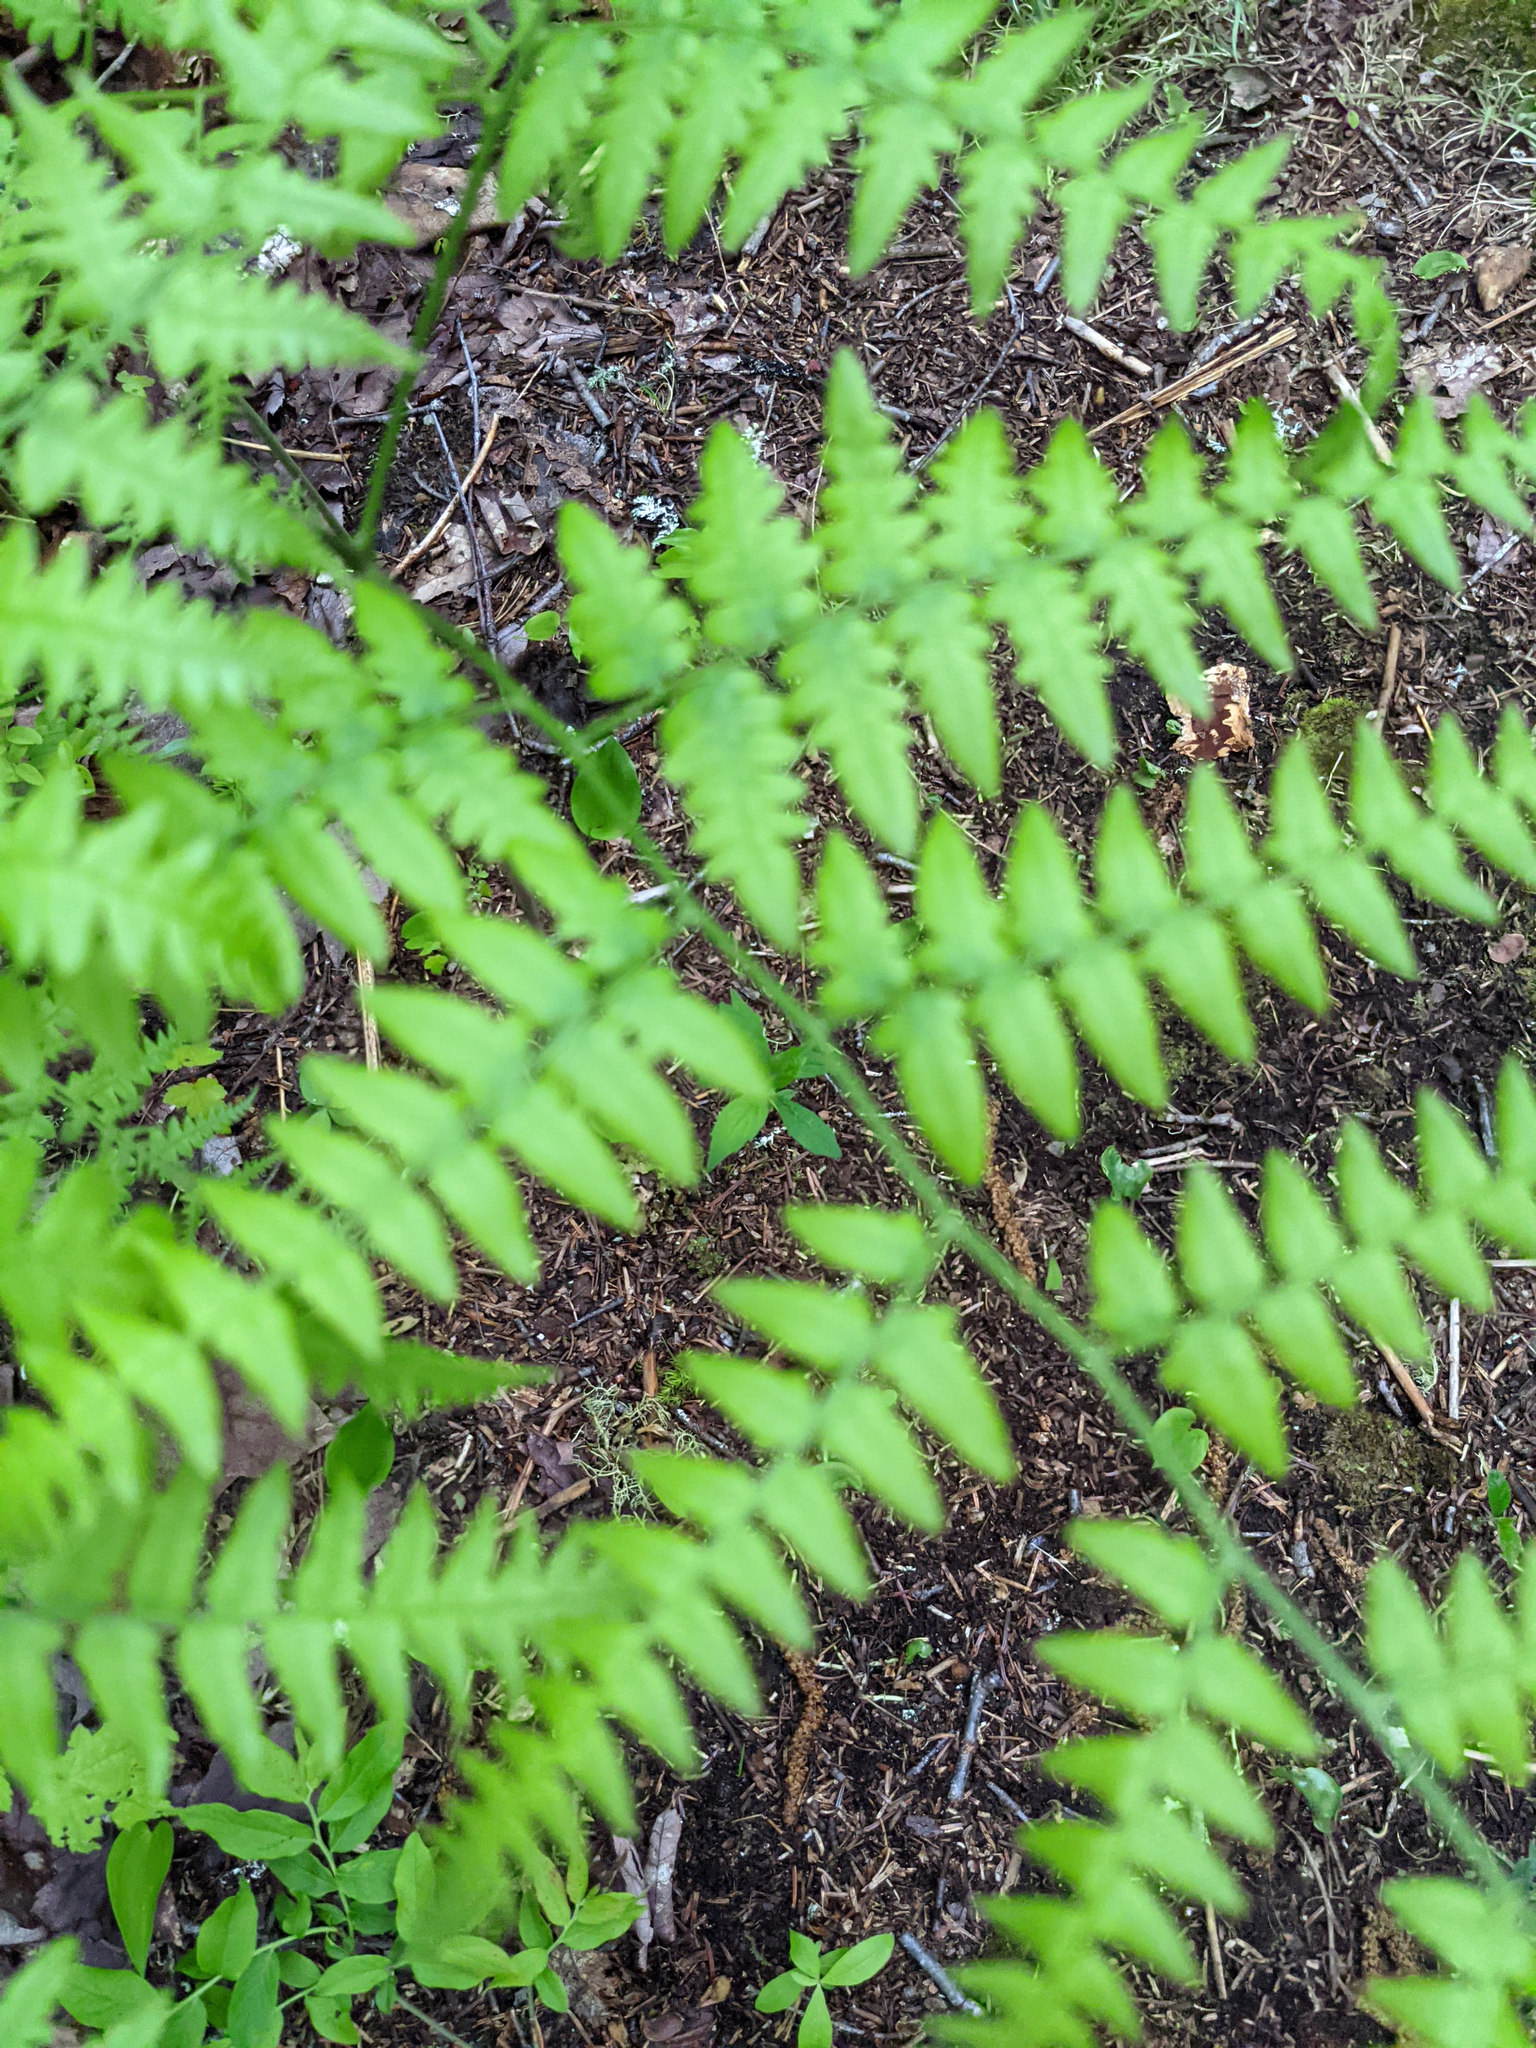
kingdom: Plantae
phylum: Tracheophyta
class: Polypodiopsida
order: Polypodiales
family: Dennstaedtiaceae
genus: Pteridium
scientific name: Pteridium aquilinum
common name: Bracken
